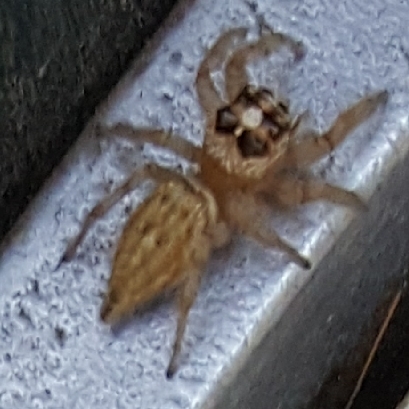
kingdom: Animalia
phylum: Arthropoda
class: Arachnida
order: Araneae
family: Salticidae
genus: Colonus
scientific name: Colonus hesperus
